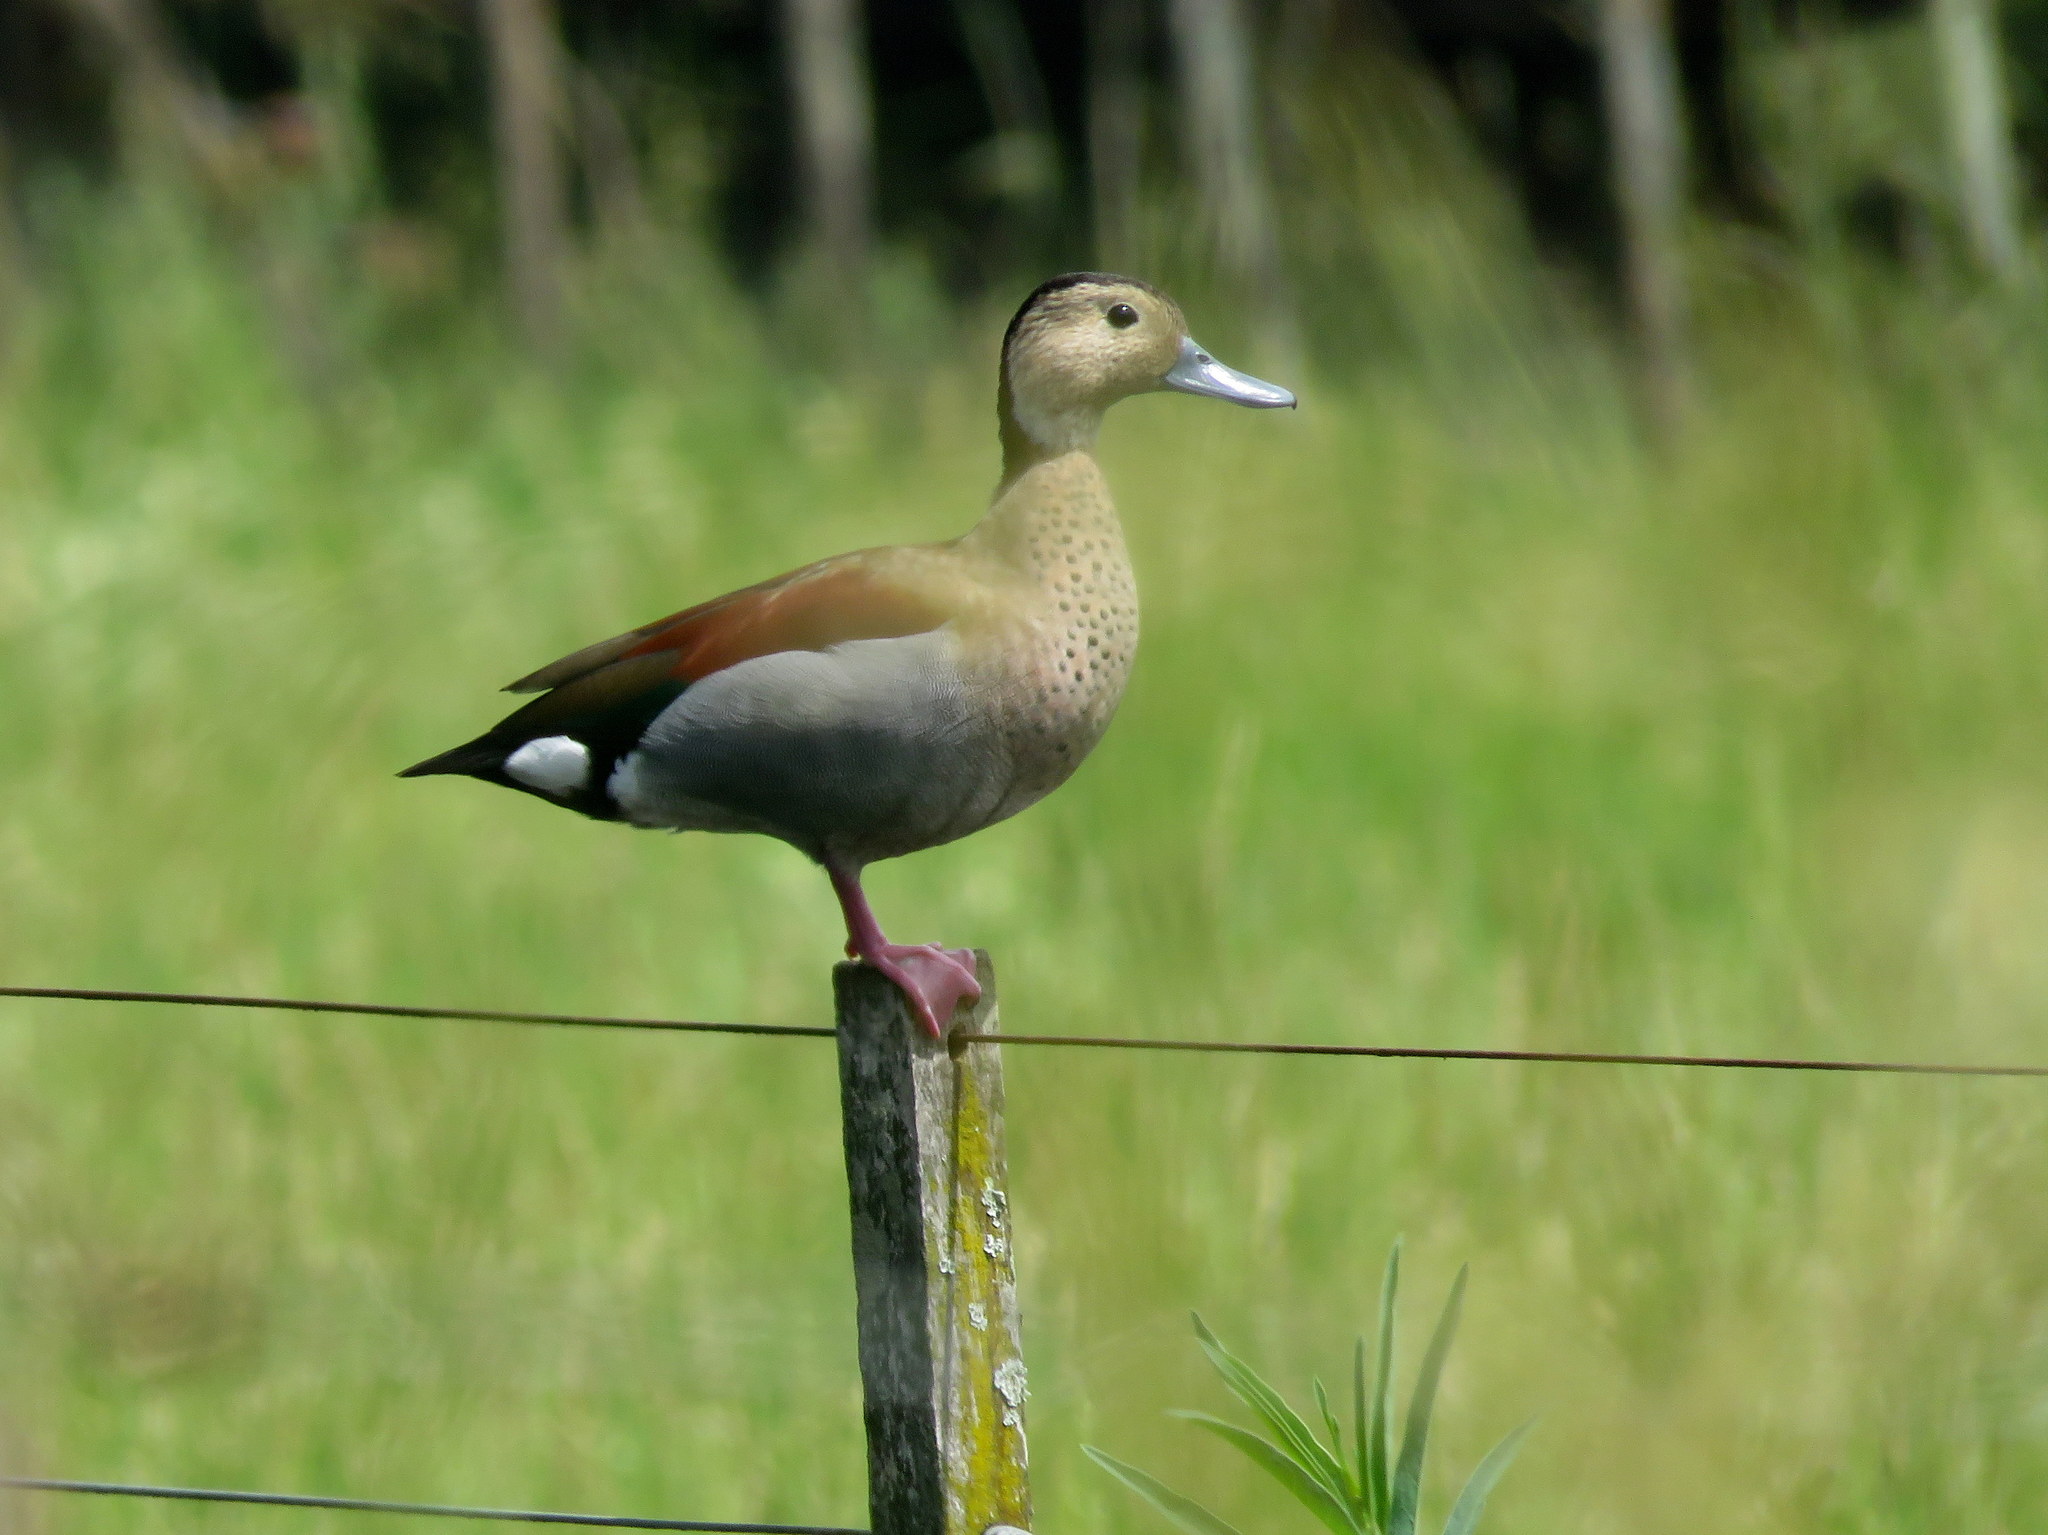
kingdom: Animalia
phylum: Chordata
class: Aves
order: Anseriformes
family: Anatidae
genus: Callonetta
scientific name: Callonetta leucophrys
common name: Ringed teal
